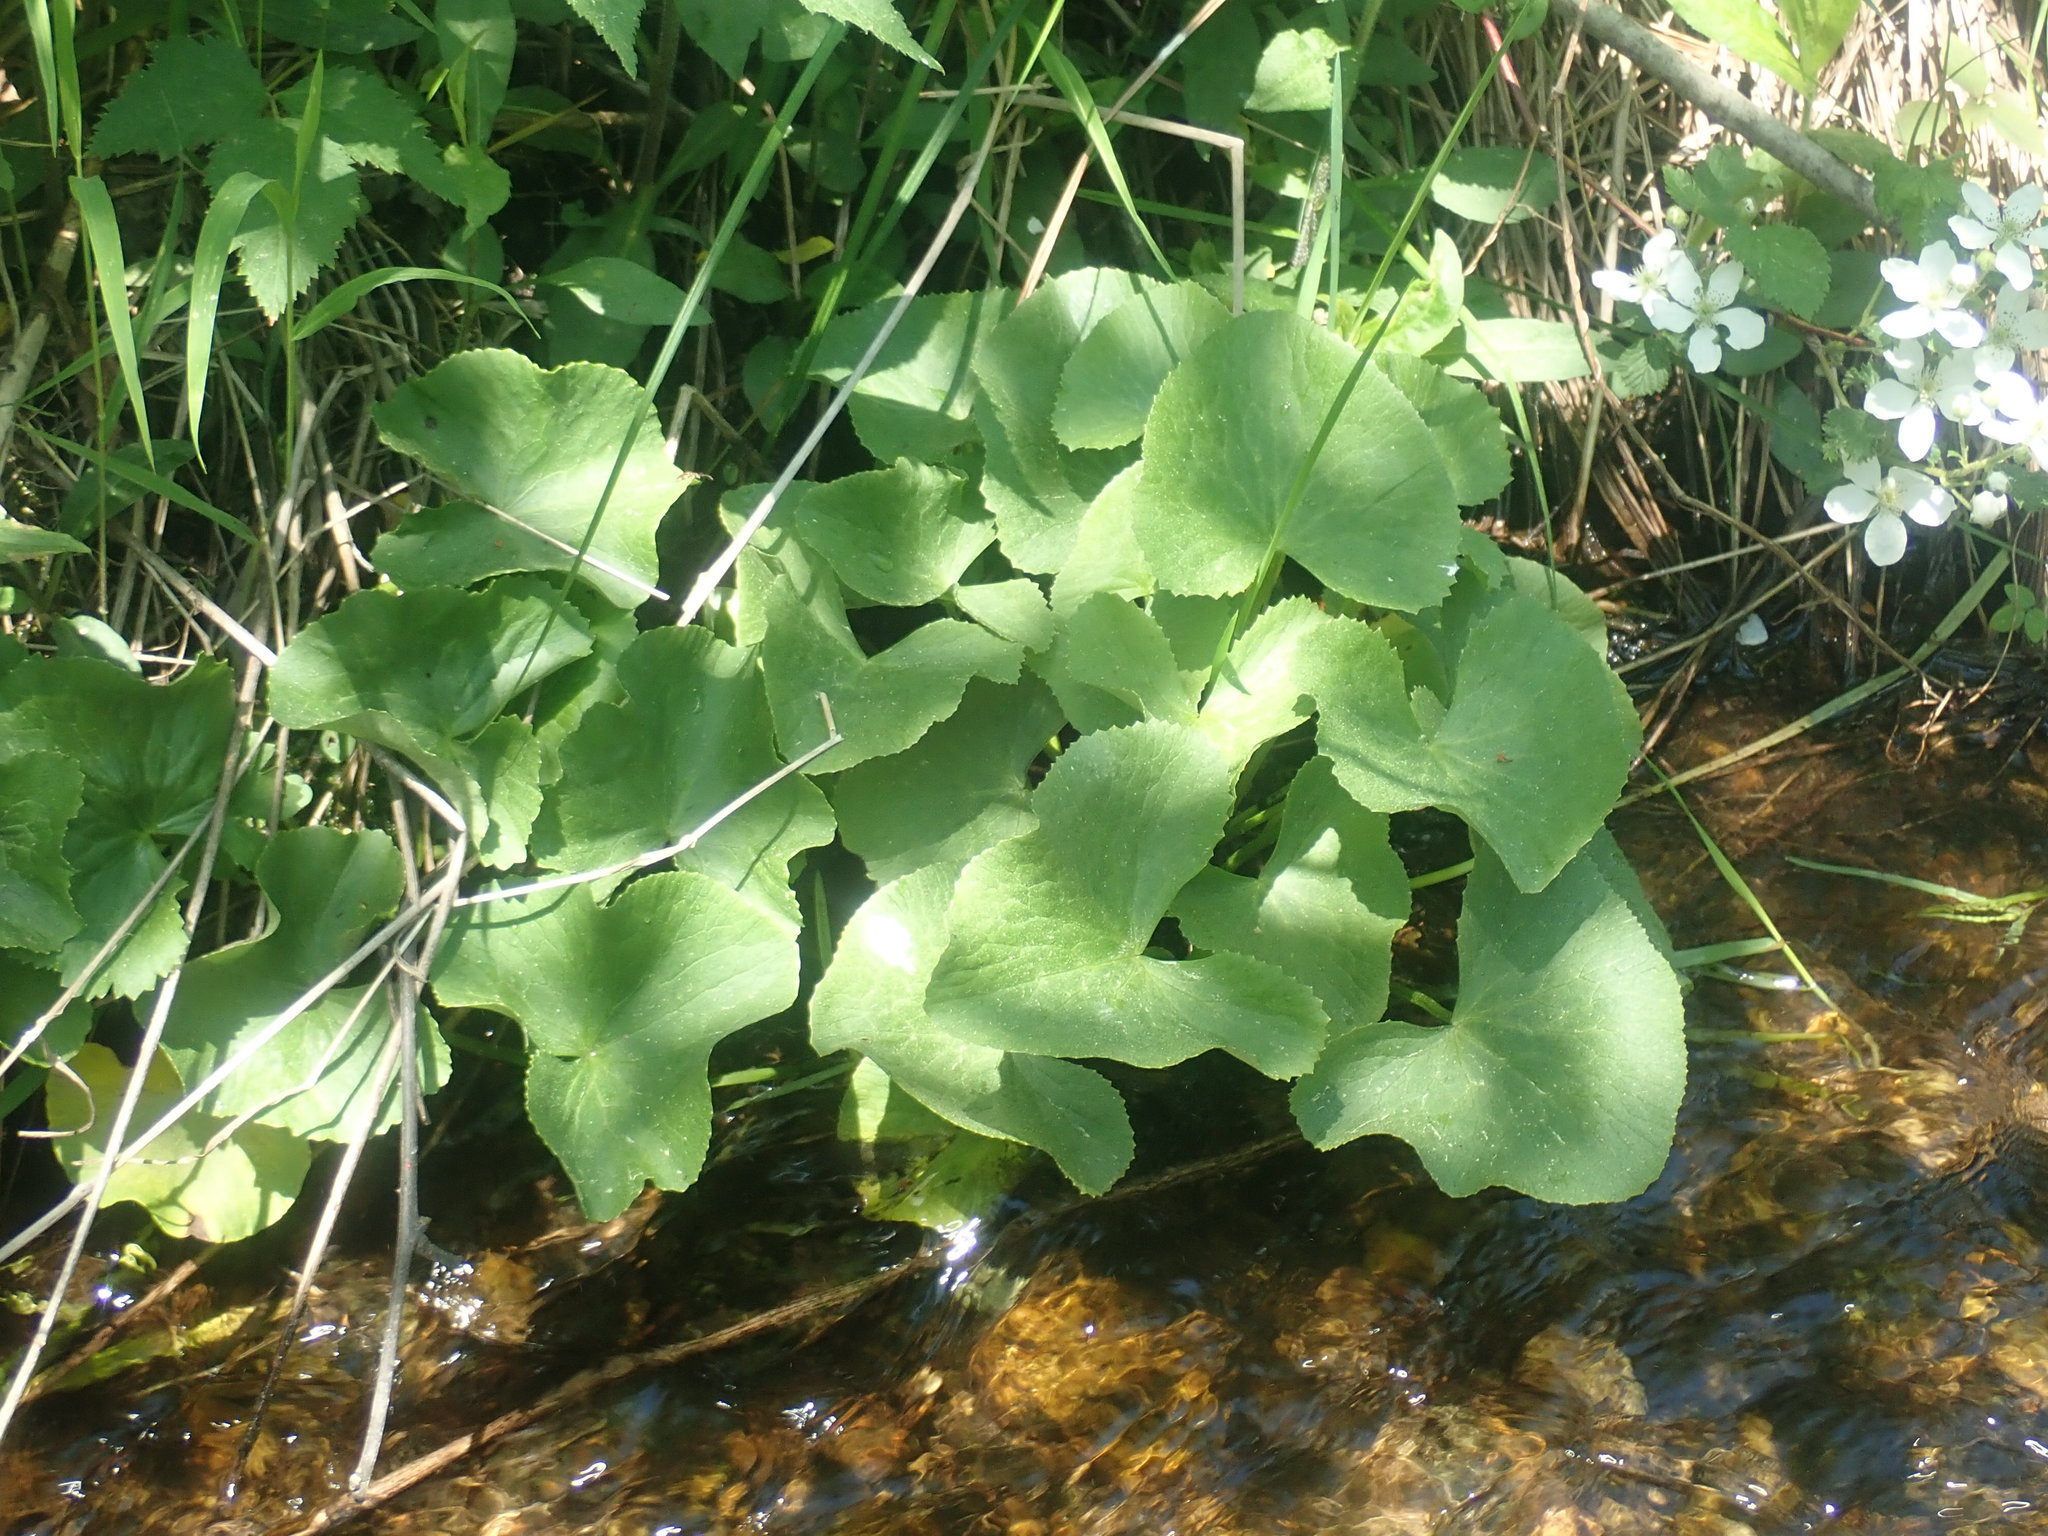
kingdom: Plantae
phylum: Tracheophyta
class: Magnoliopsida
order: Ranunculales
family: Ranunculaceae
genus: Caltha
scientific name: Caltha palustris
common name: Marsh marigold
